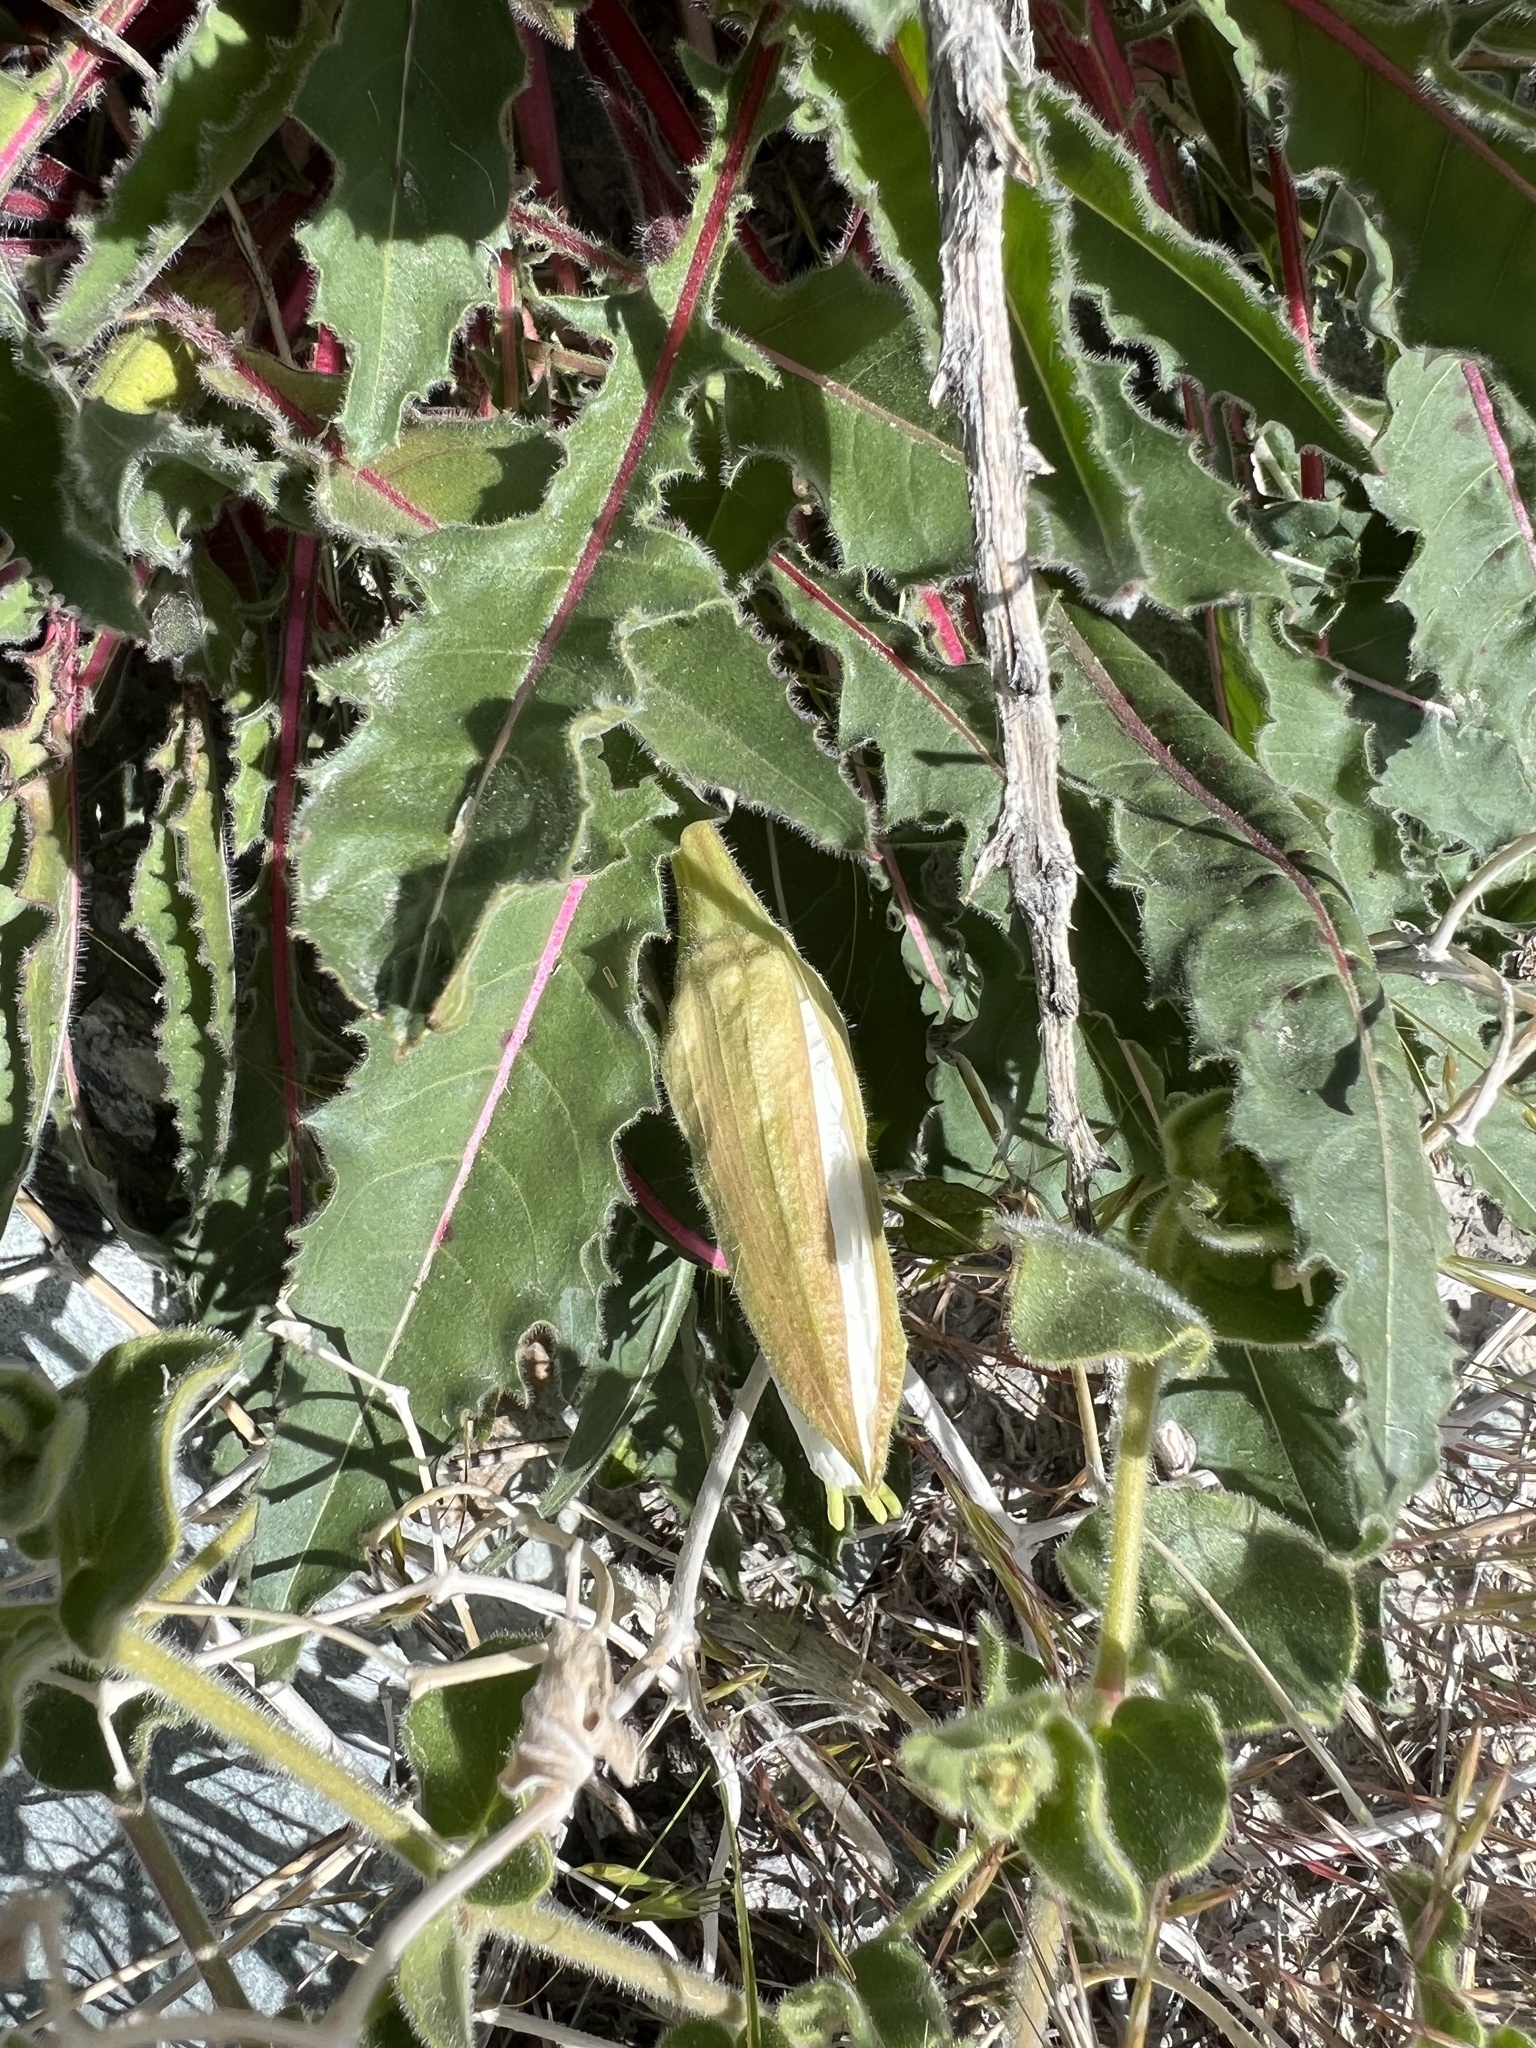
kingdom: Plantae
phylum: Tracheophyta
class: Magnoliopsida
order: Myrtales
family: Onagraceae
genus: Oenothera
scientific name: Oenothera cespitosa
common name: Tufted evening-primrose
